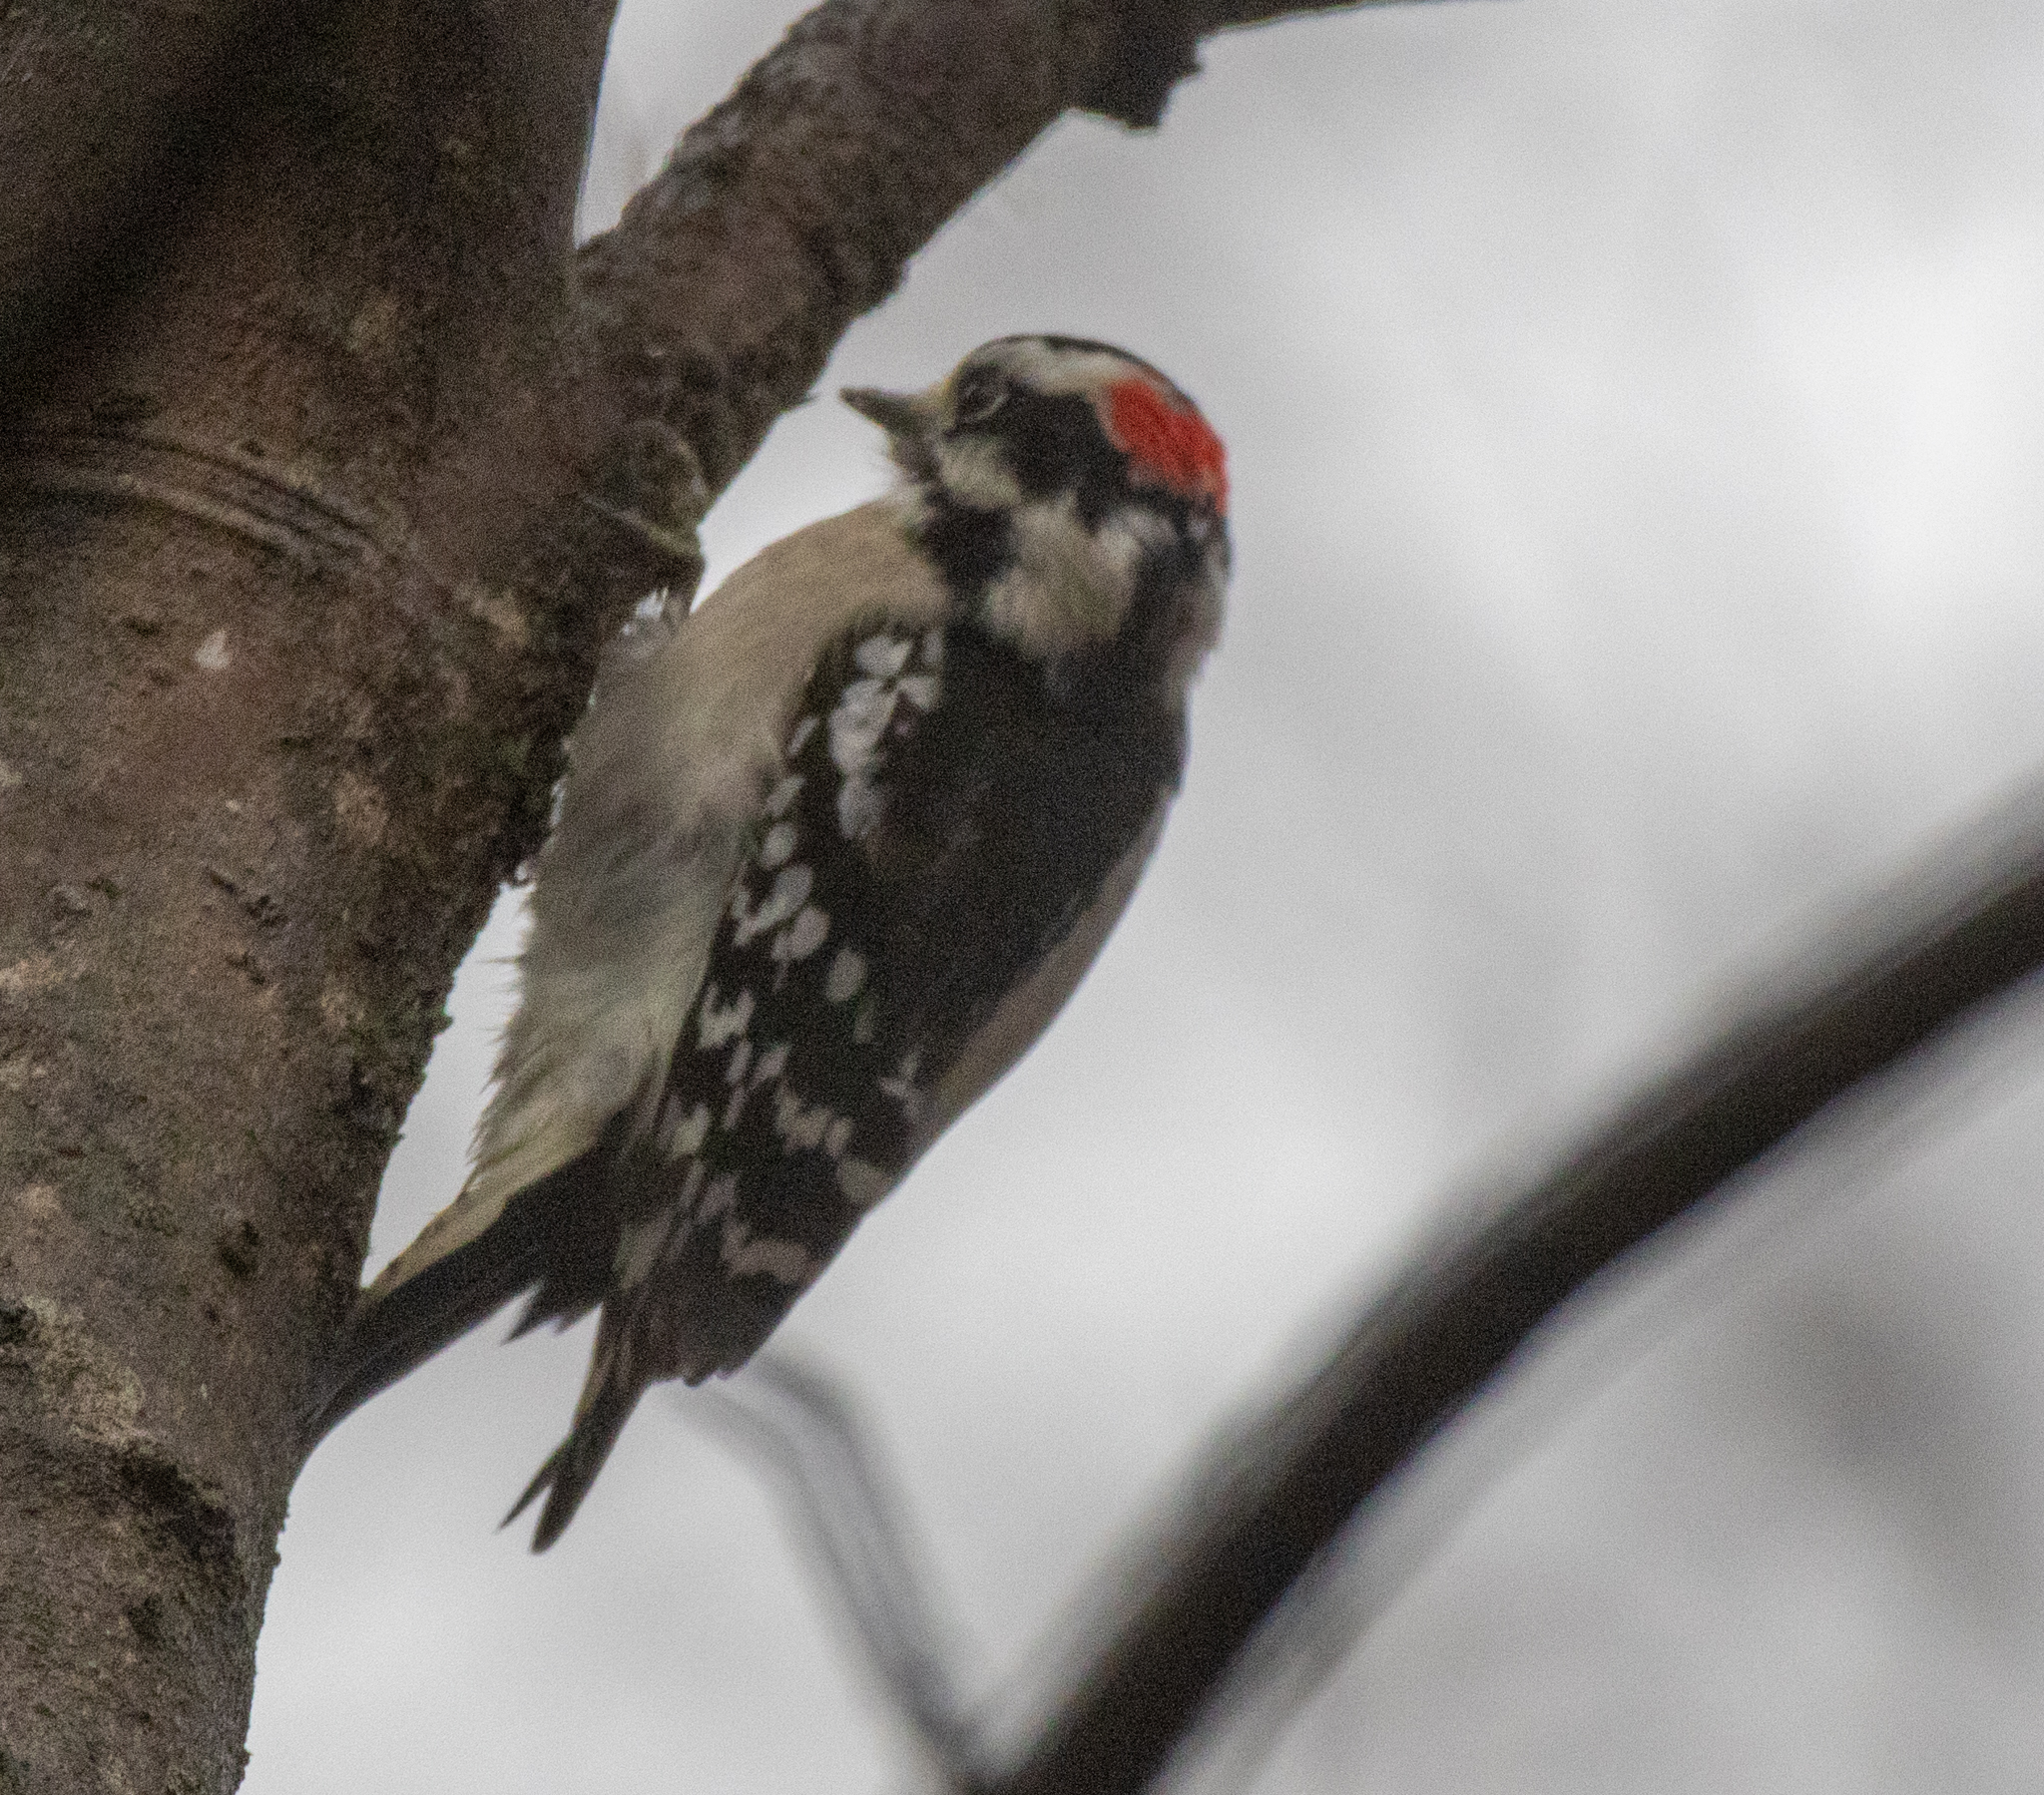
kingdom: Animalia
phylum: Chordata
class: Aves
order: Piciformes
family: Picidae
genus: Dryobates
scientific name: Dryobates pubescens
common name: Downy woodpecker
